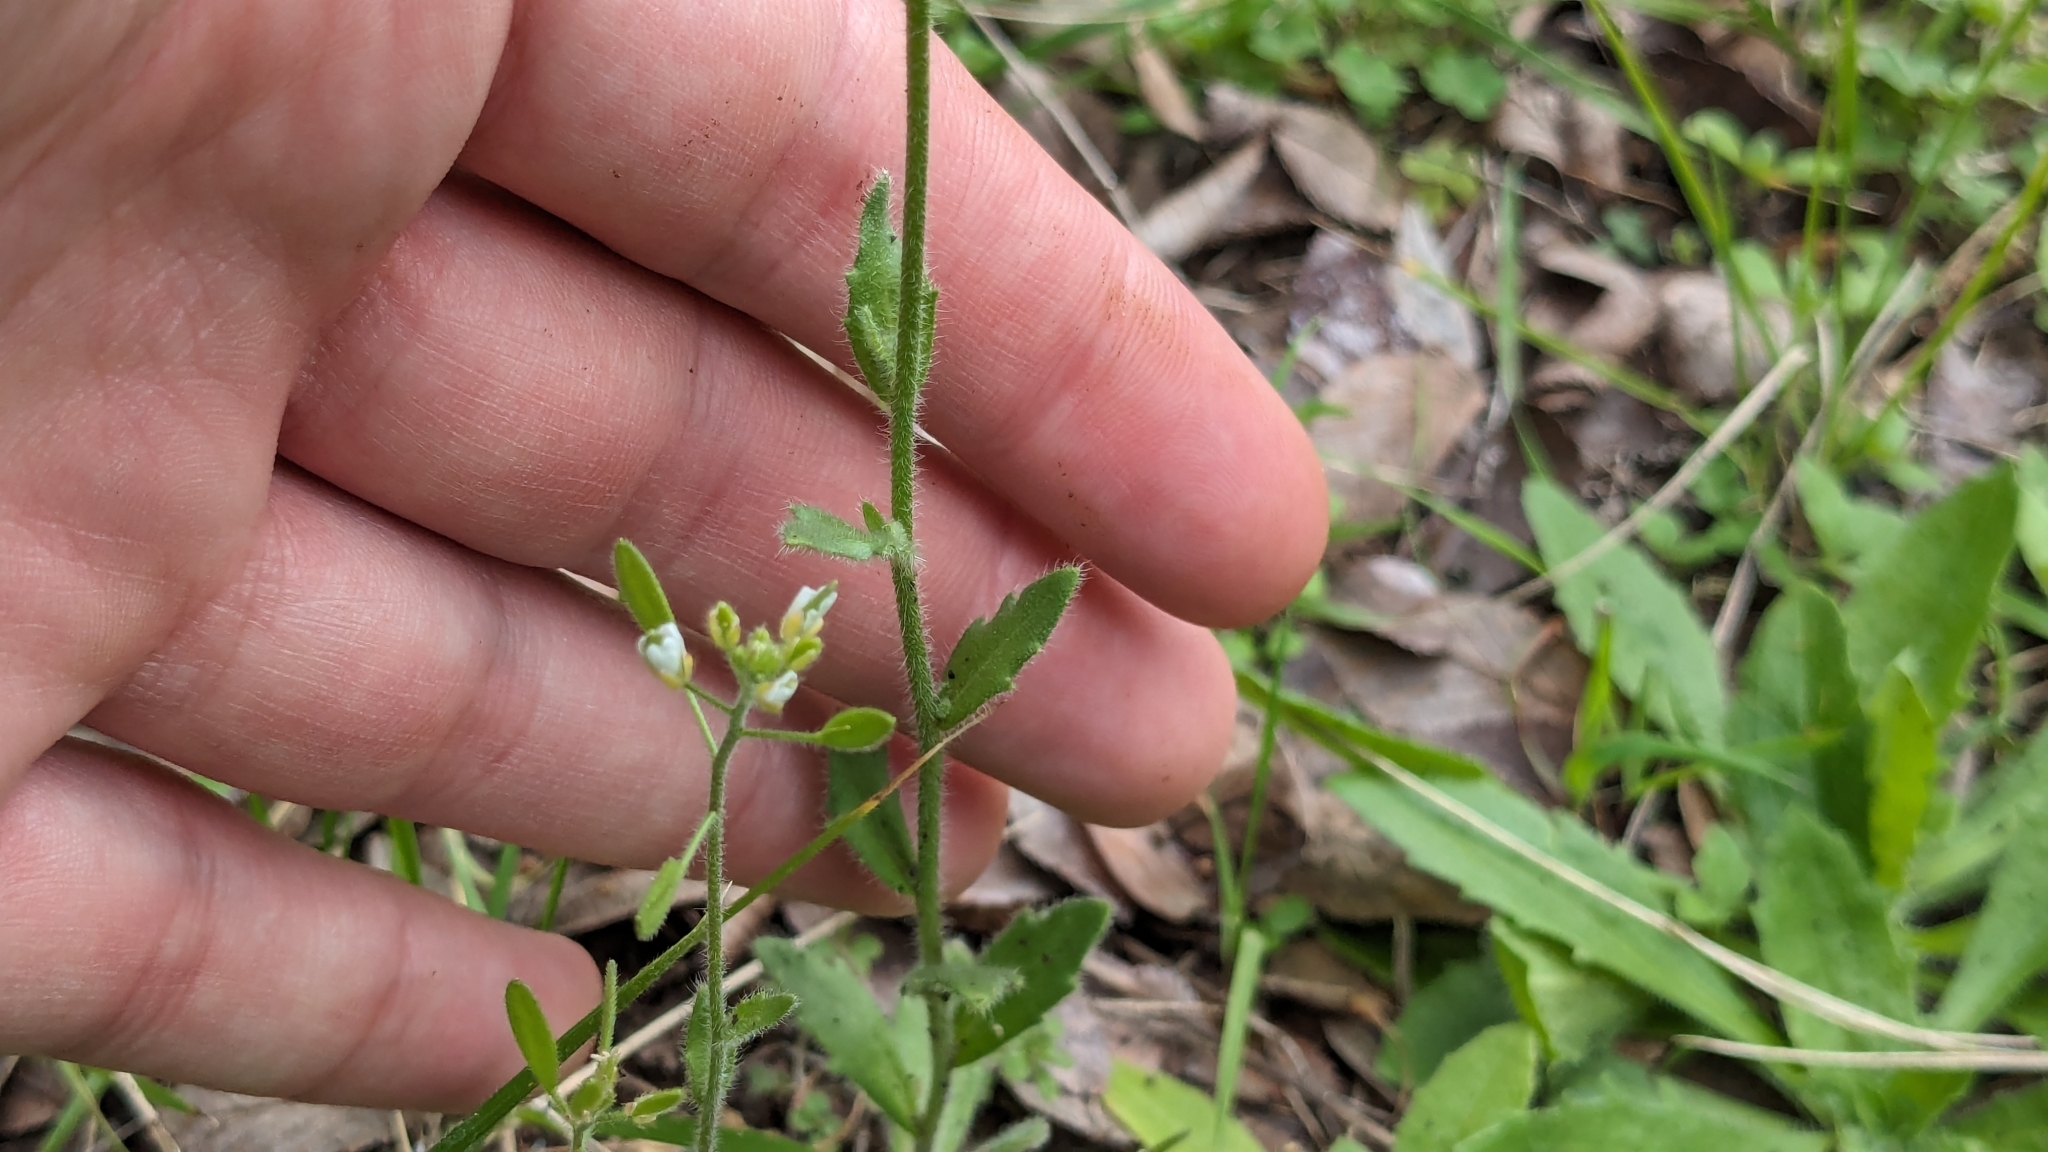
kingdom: Plantae
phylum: Tracheophyta
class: Magnoliopsida
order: Brassicales
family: Brassicaceae
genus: Tomostima
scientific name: Tomostima platycarpa
